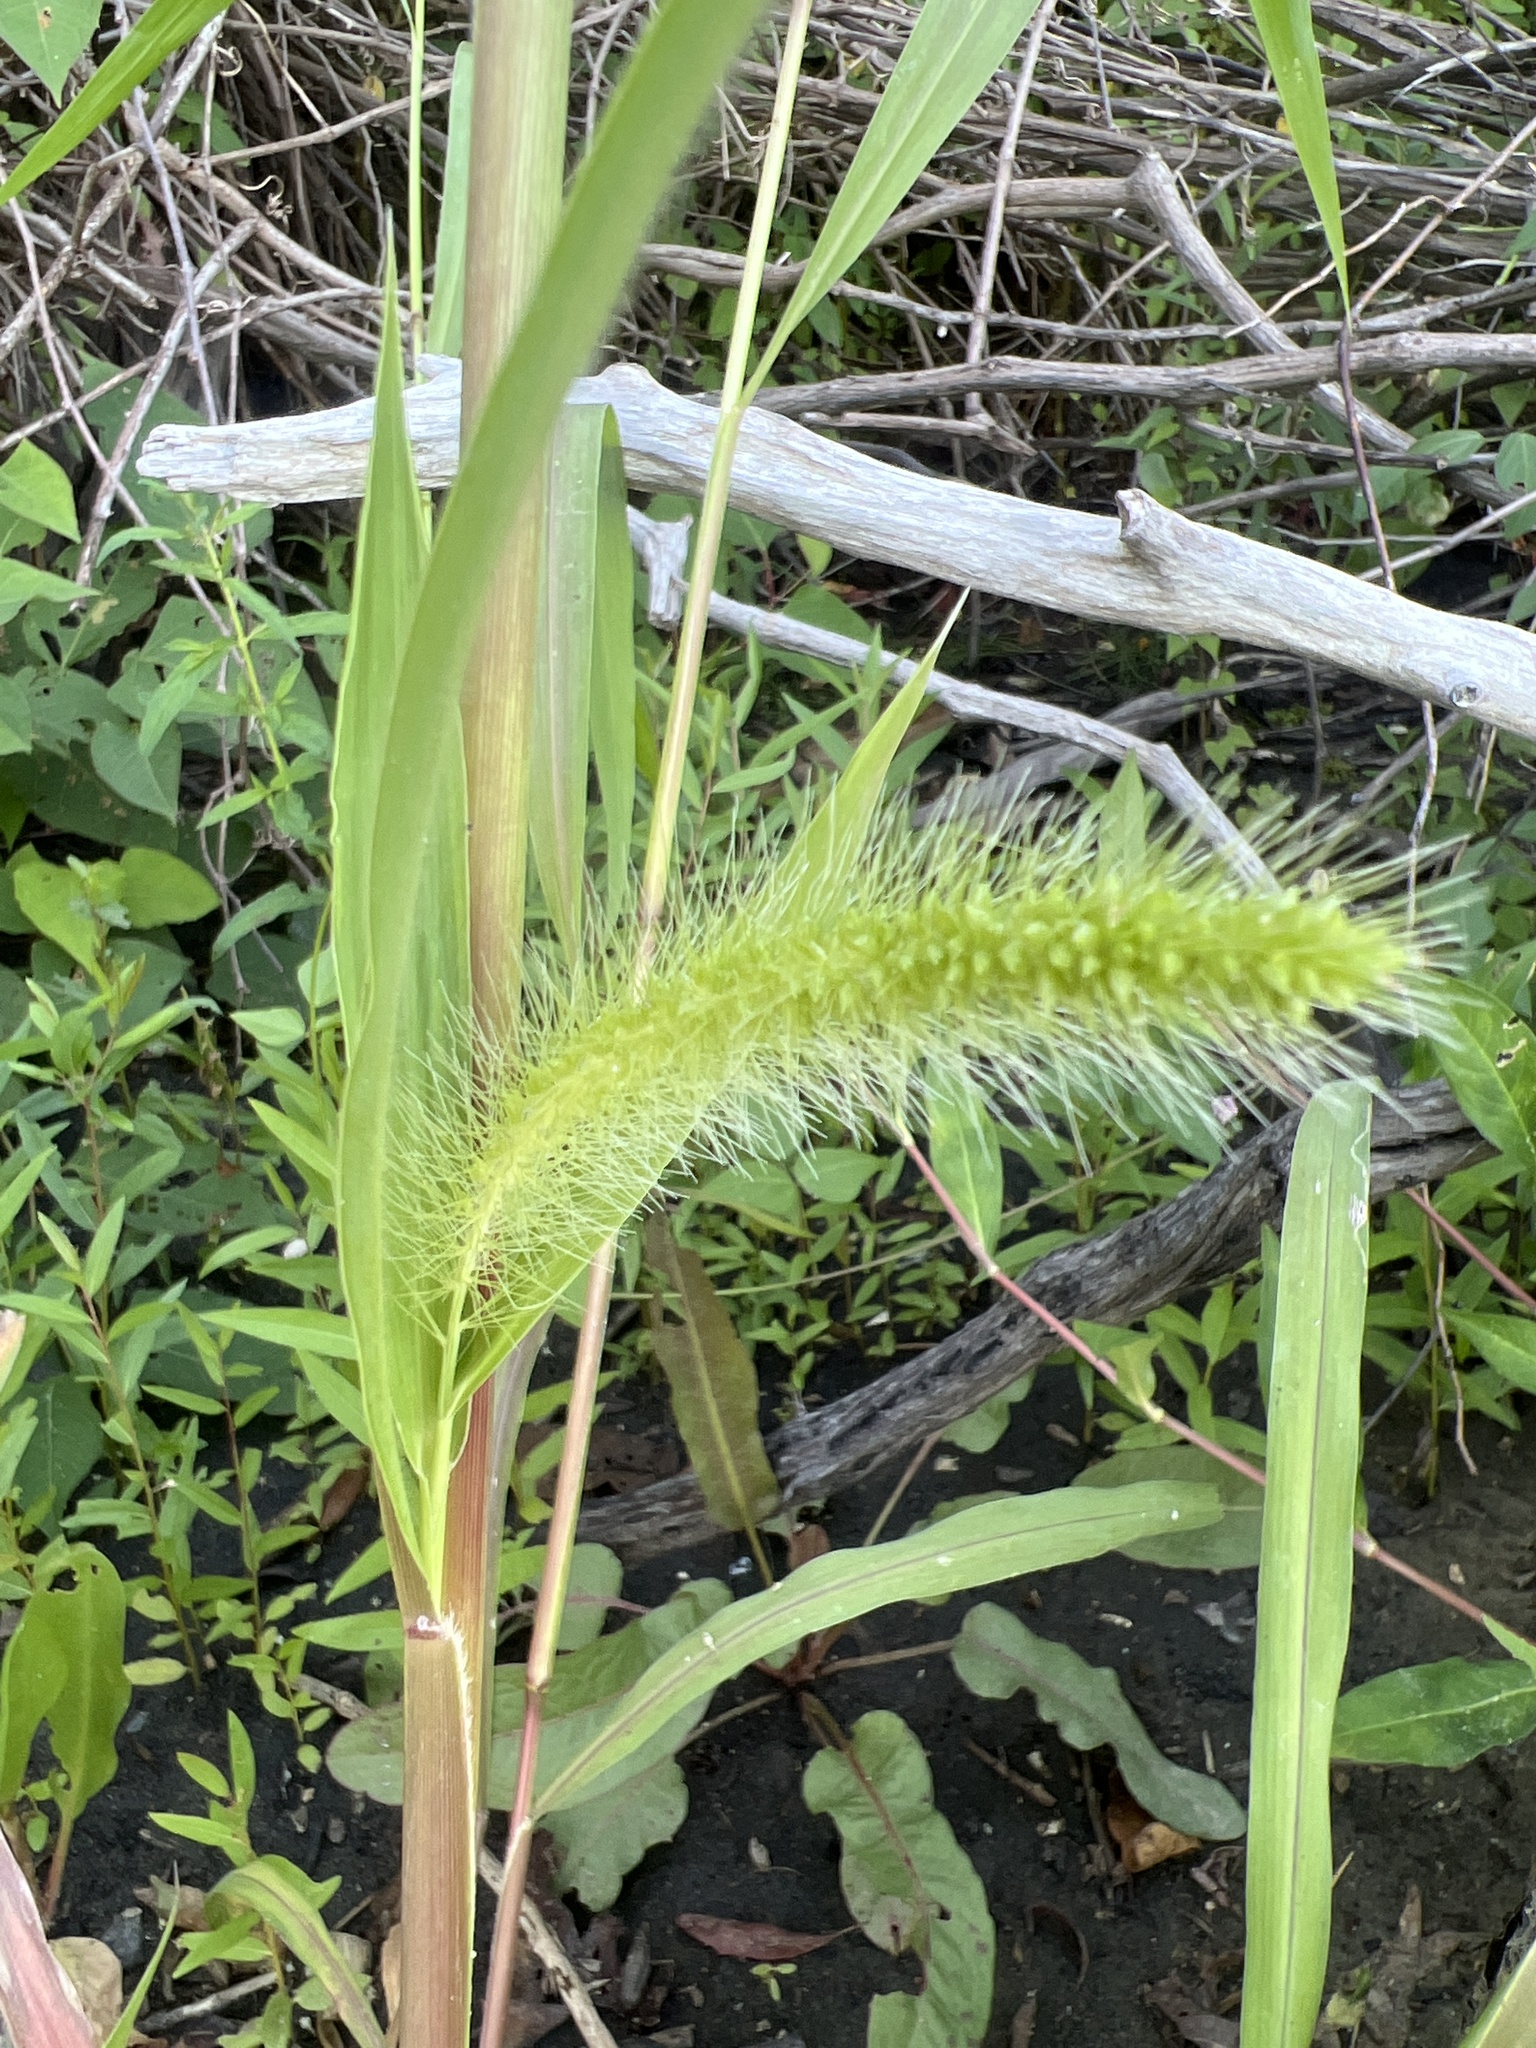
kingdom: Plantae
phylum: Tracheophyta
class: Liliopsida
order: Poales
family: Poaceae
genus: Setaria
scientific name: Setaria faberi
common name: Nodding bristle-grass
